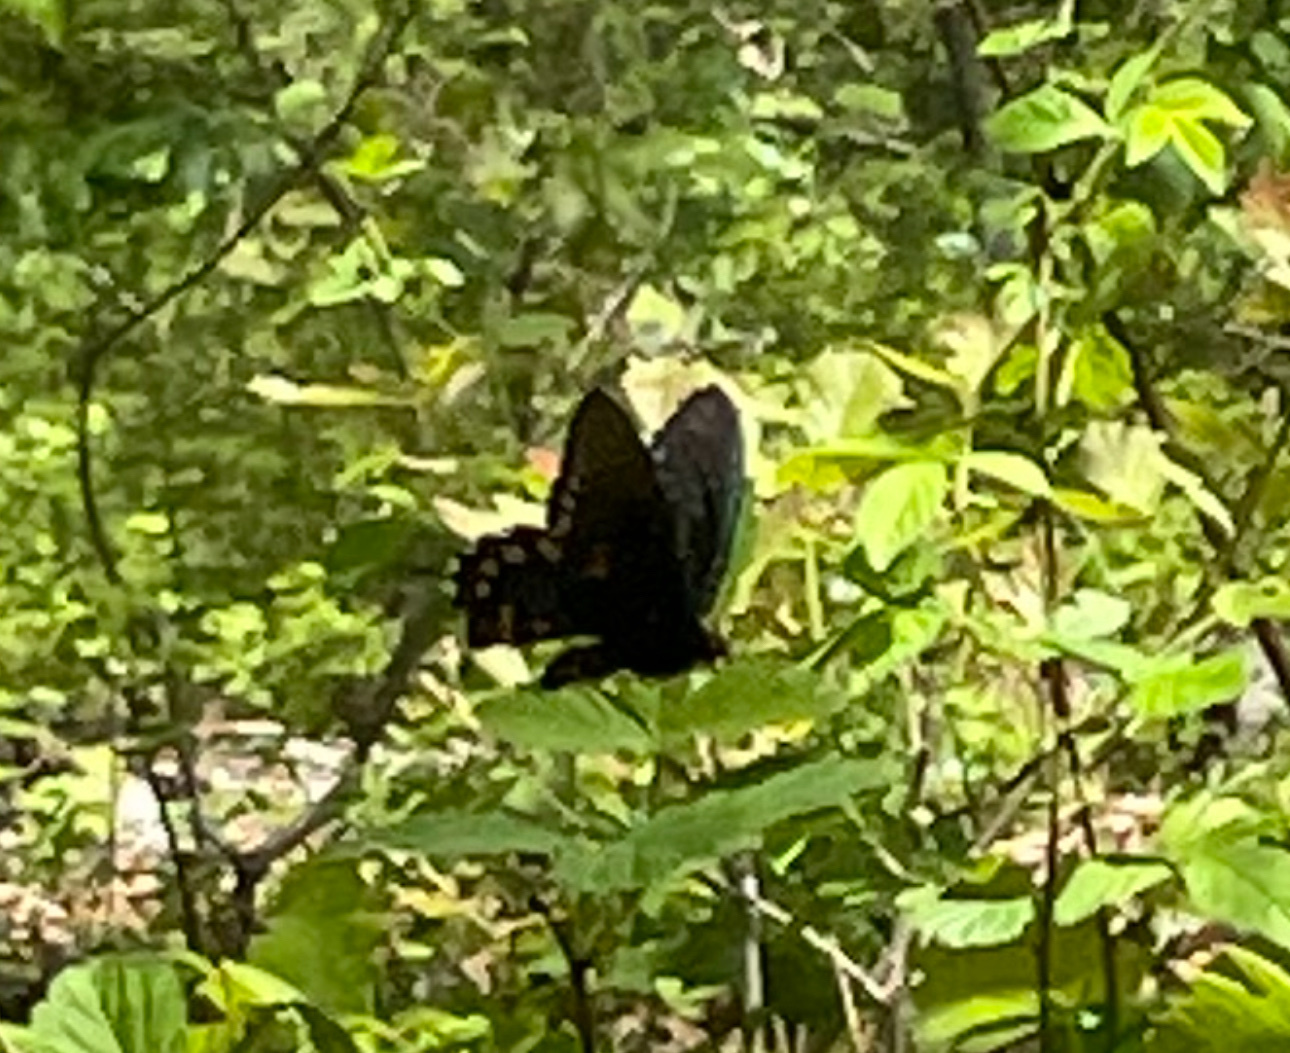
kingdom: Animalia
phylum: Arthropoda
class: Insecta
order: Lepidoptera
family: Papilionidae
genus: Battus
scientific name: Battus philenor
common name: Pipevine swallowtail
